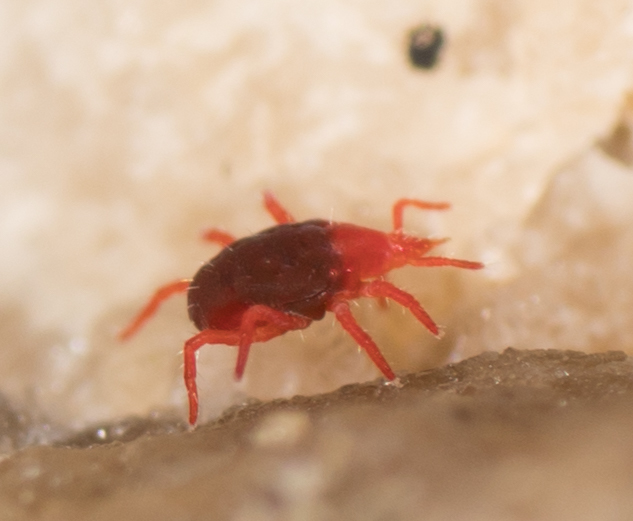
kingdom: Animalia
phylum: Arthropoda
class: Arachnida
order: Trombidiformes
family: Bdellidae
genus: Neomolgus
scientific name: Neomolgus littoralis
